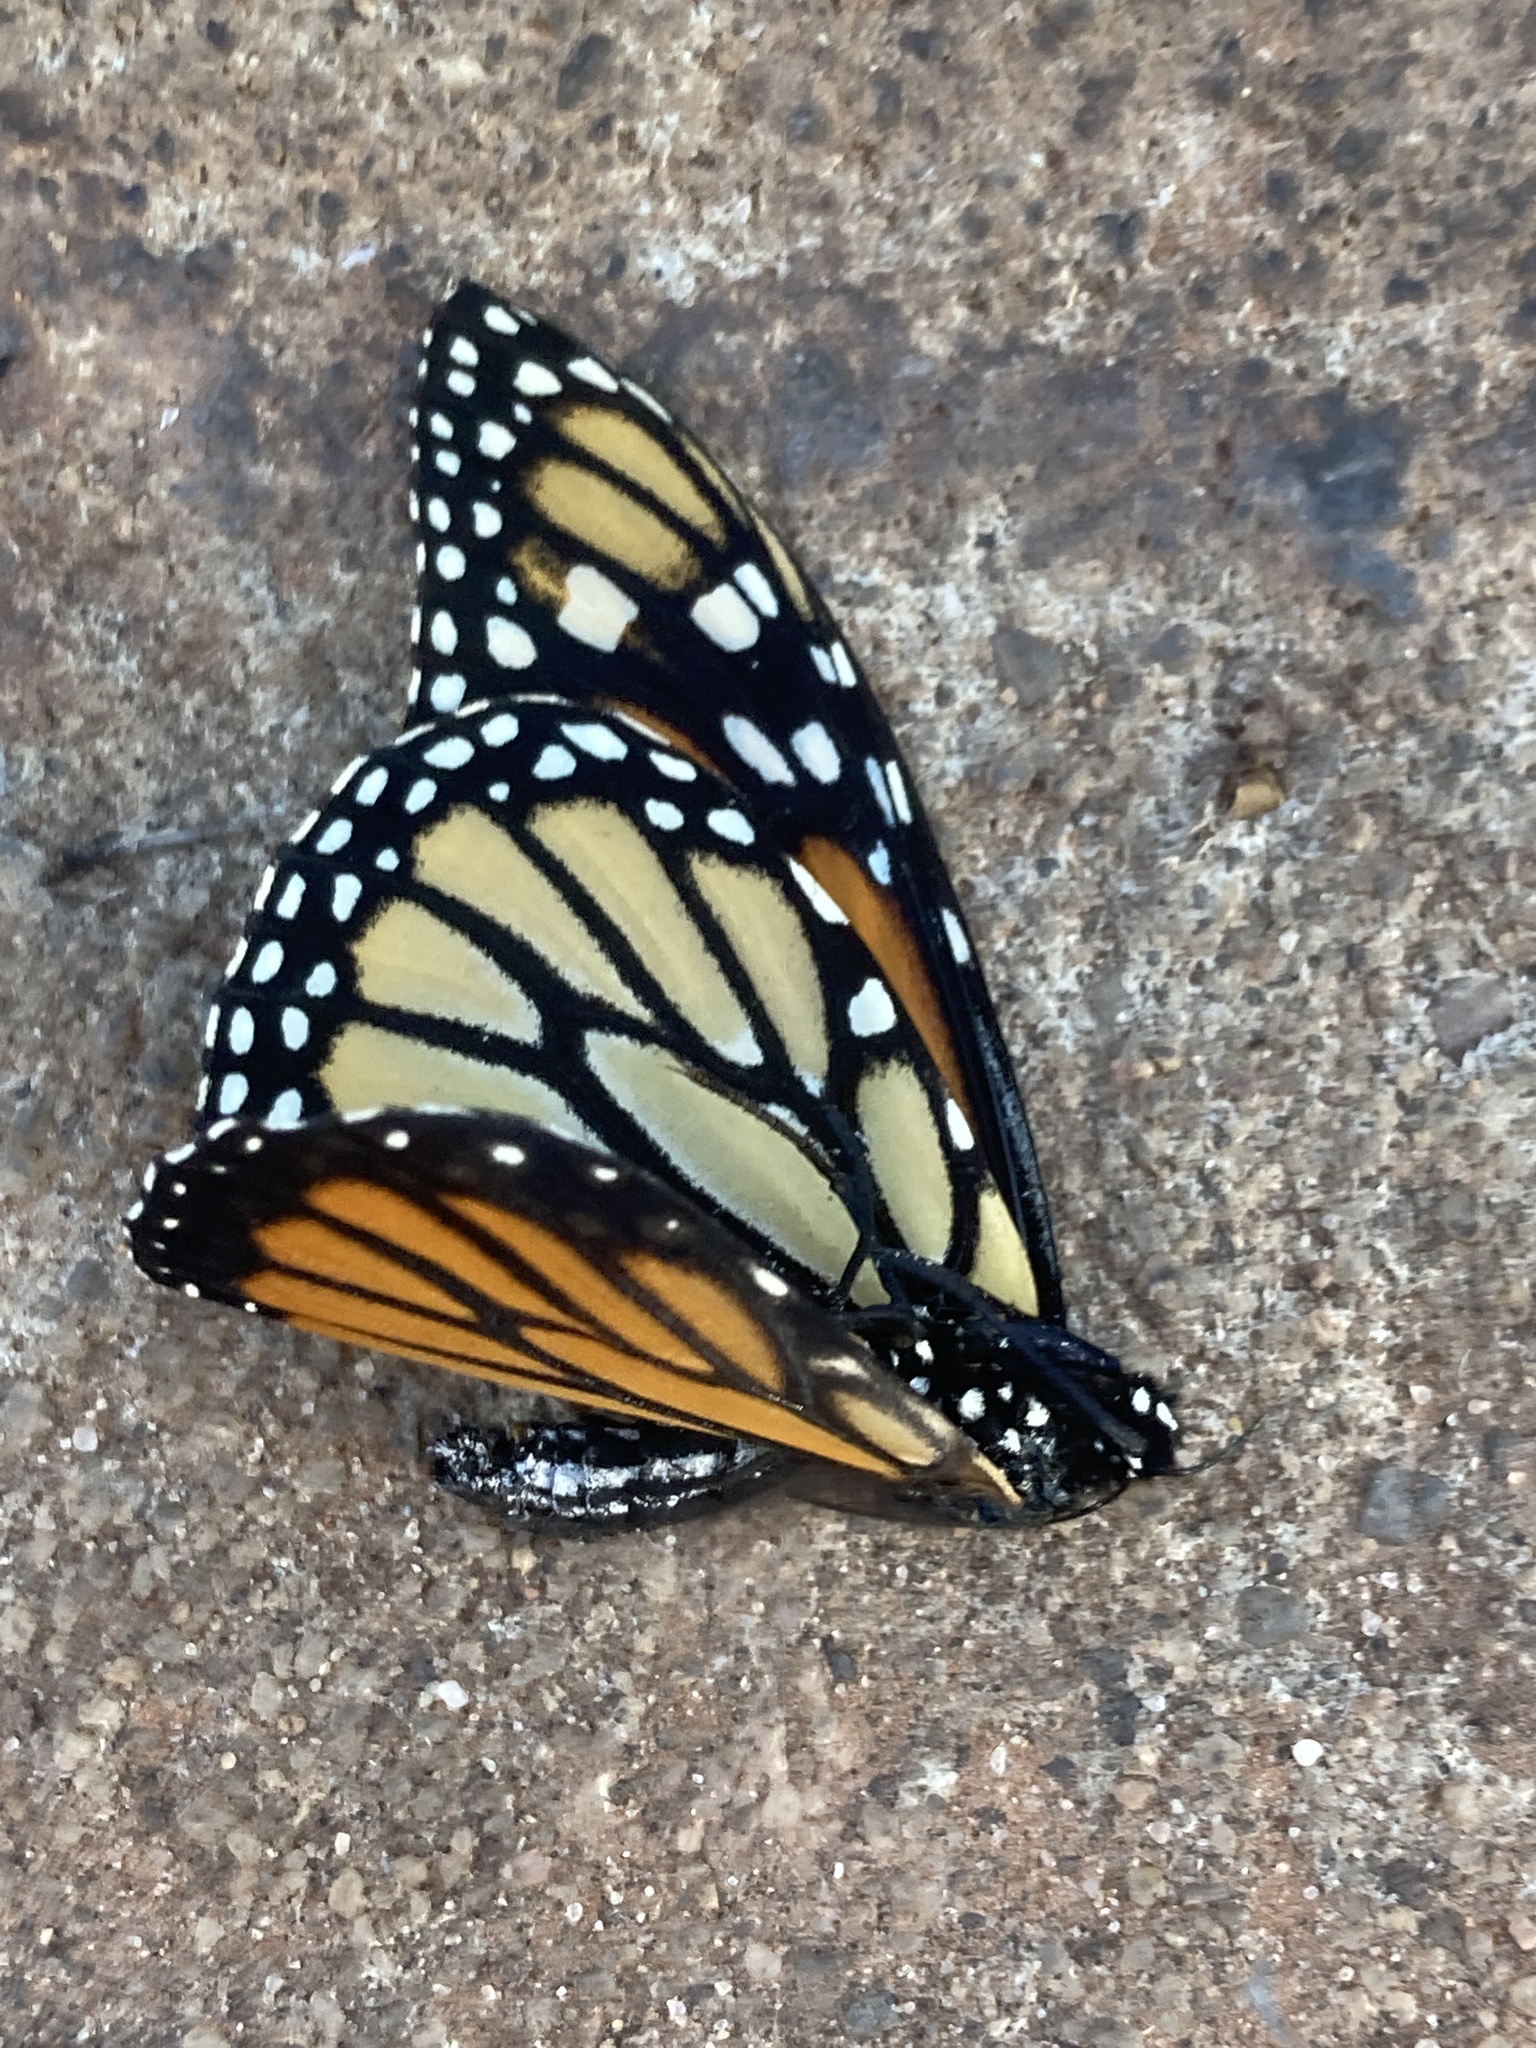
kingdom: Animalia
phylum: Arthropoda
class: Insecta
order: Lepidoptera
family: Nymphalidae
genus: Danaus
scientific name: Danaus plexippus
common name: Monarch
